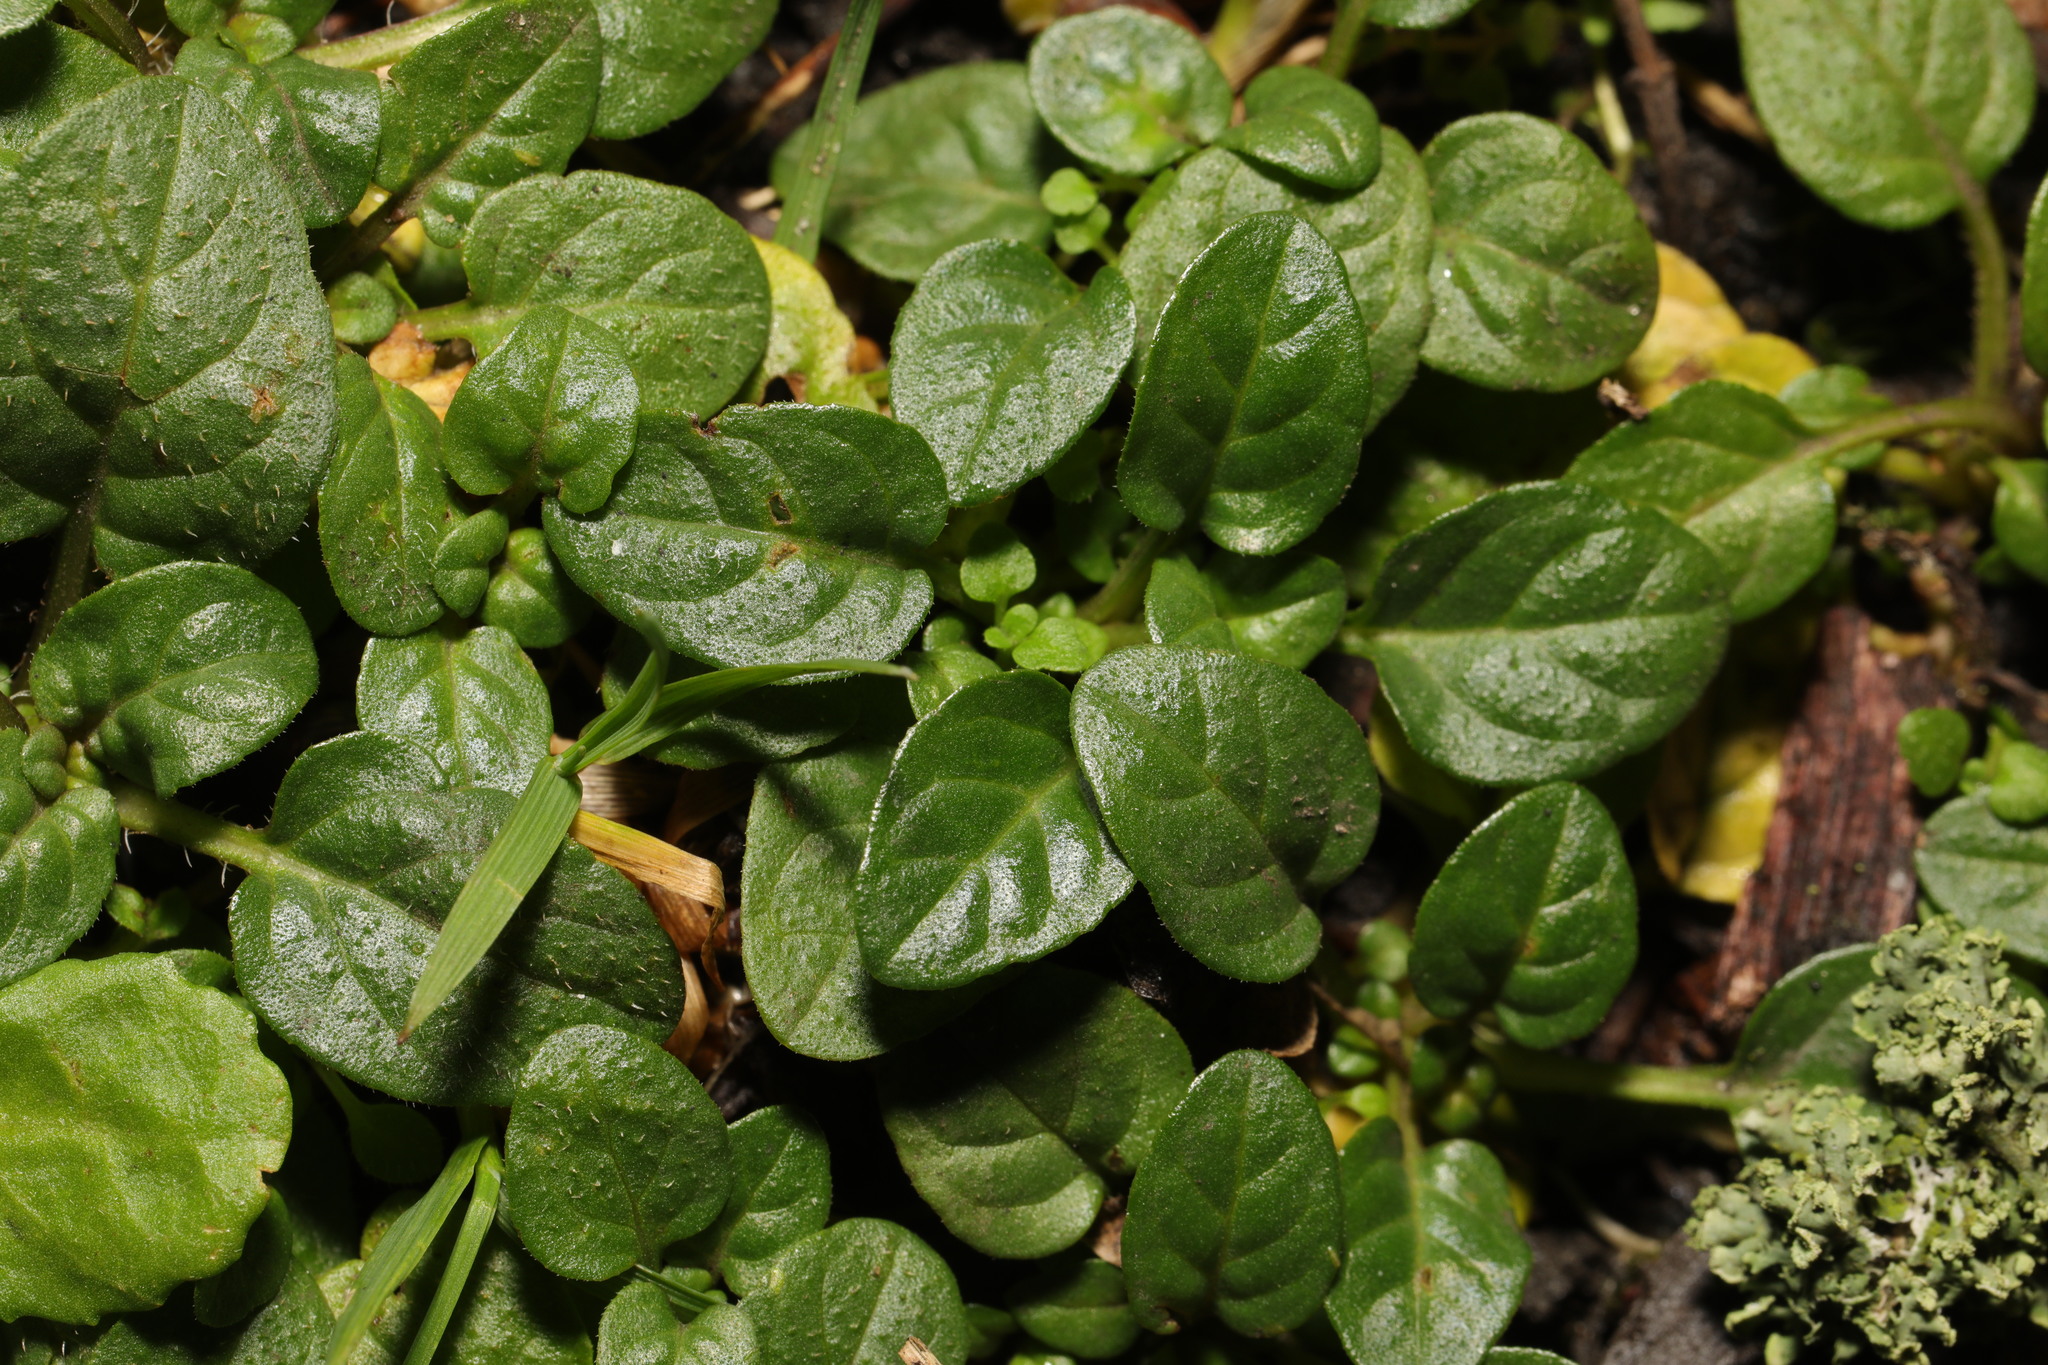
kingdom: Plantae
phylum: Tracheophyta
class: Magnoliopsida
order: Lamiales
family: Lamiaceae
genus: Prunella
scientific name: Prunella vulgaris
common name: Heal-all
